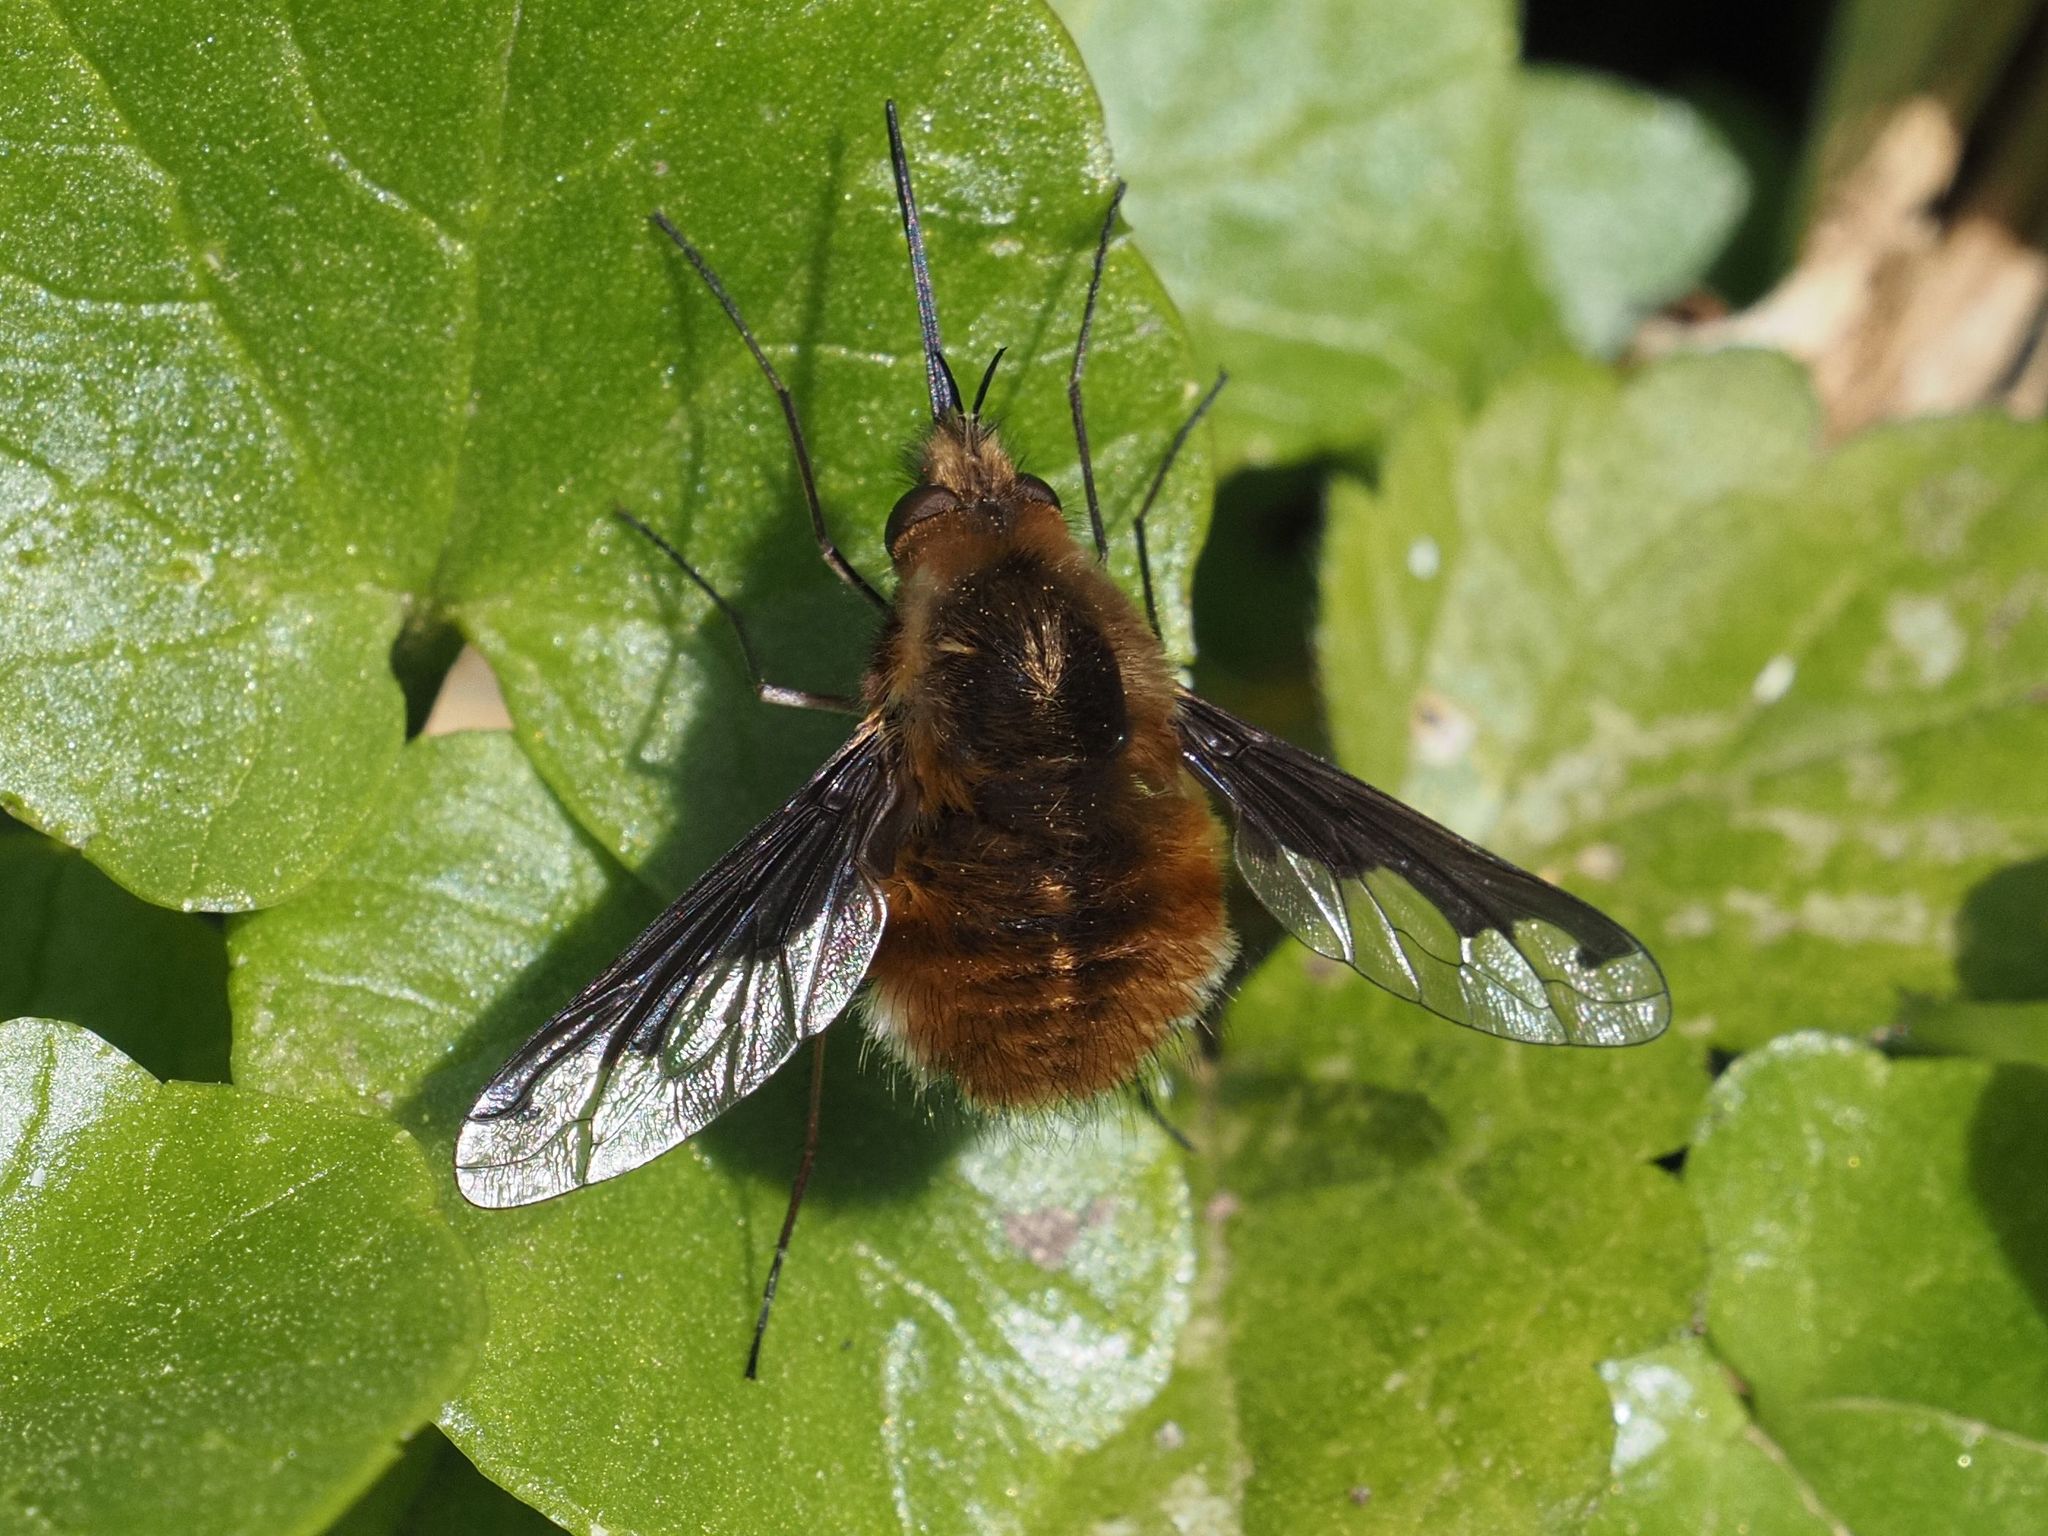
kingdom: Animalia
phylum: Arthropoda
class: Insecta
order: Diptera
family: Bombyliidae
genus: Bombylius
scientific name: Bombylius major
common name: Bee fly
